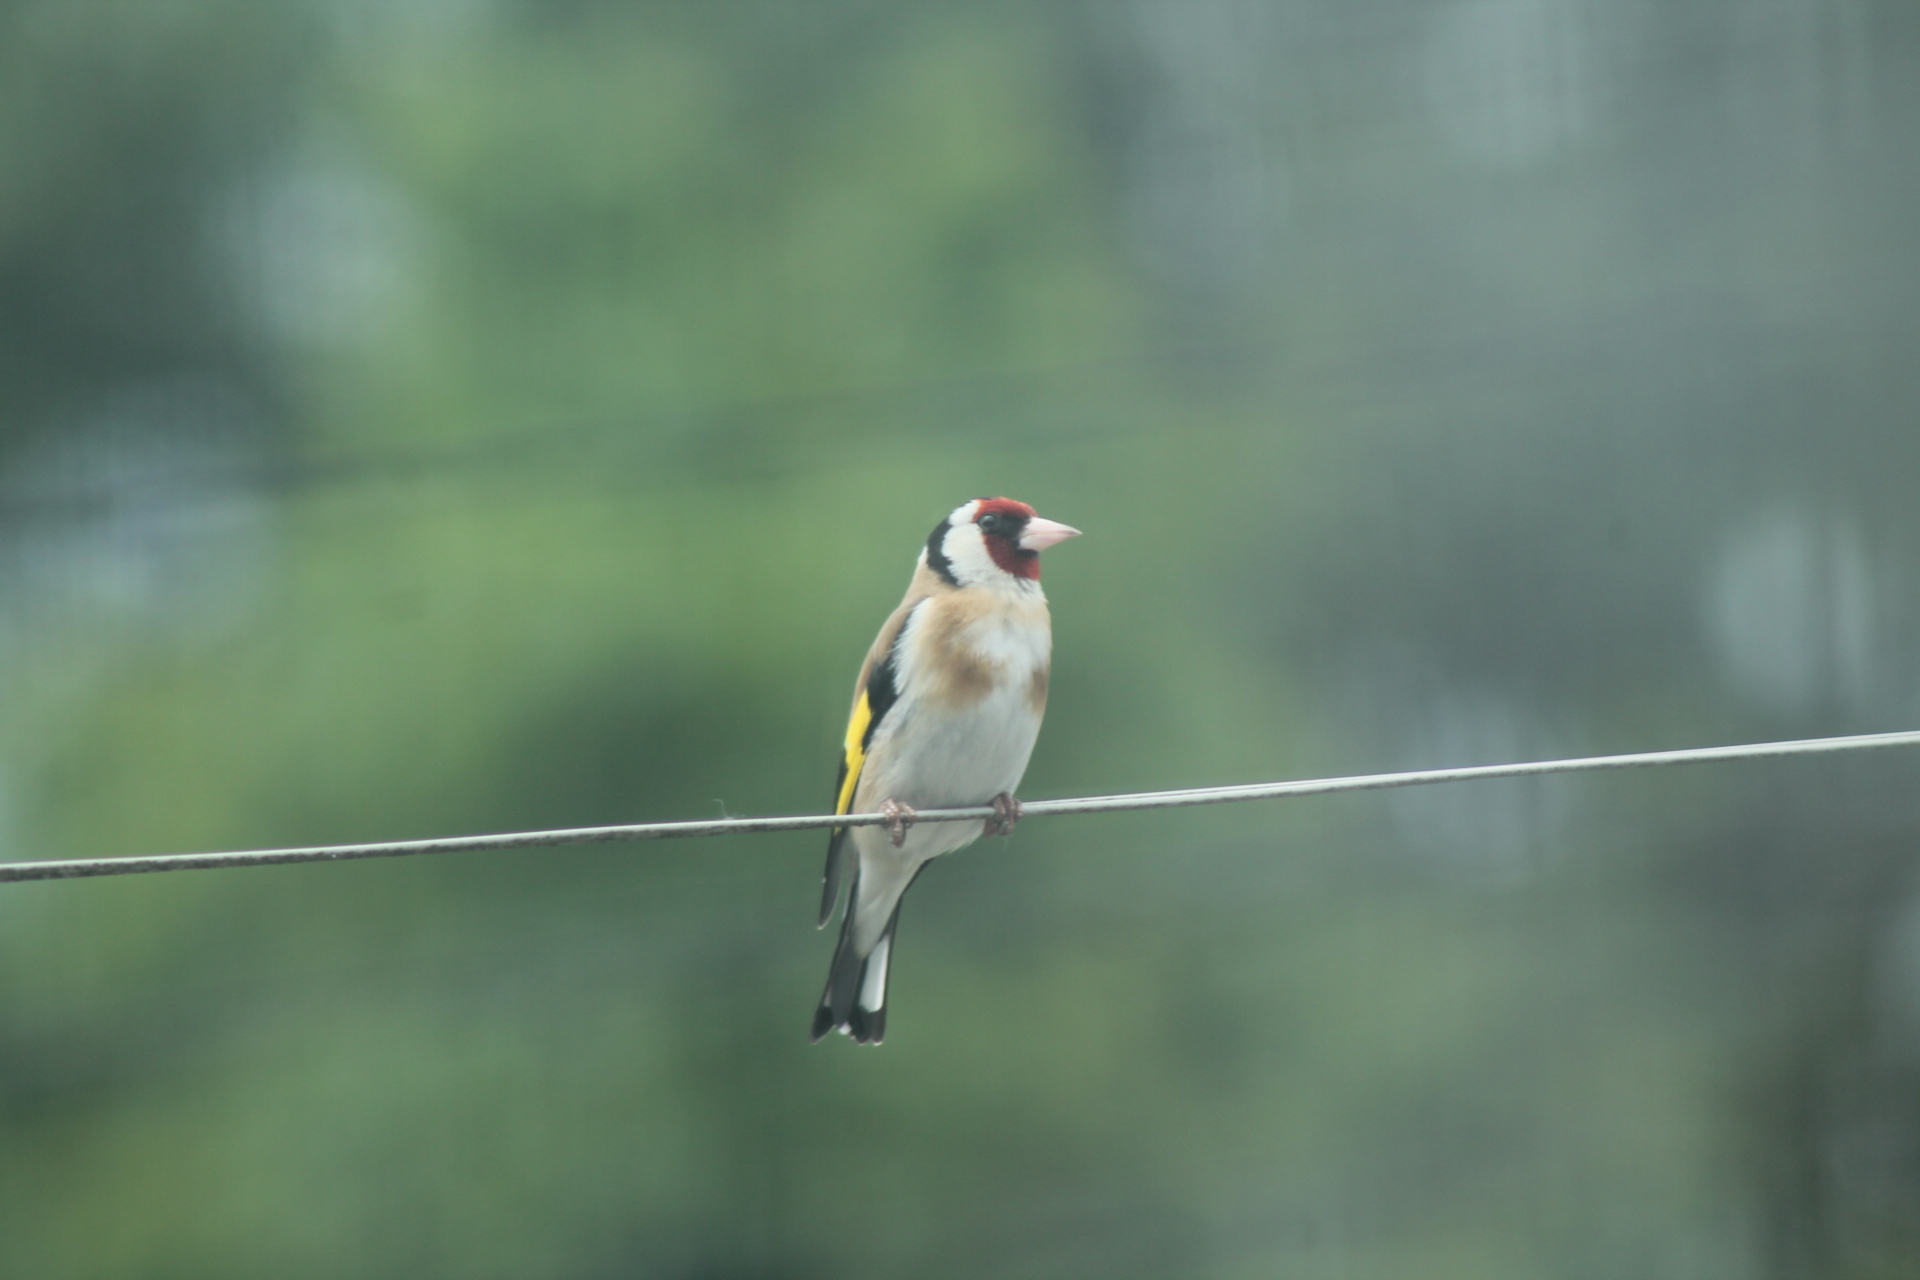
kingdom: Animalia
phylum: Chordata
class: Aves
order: Passeriformes
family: Fringillidae
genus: Carduelis
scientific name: Carduelis carduelis
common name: European goldfinch
